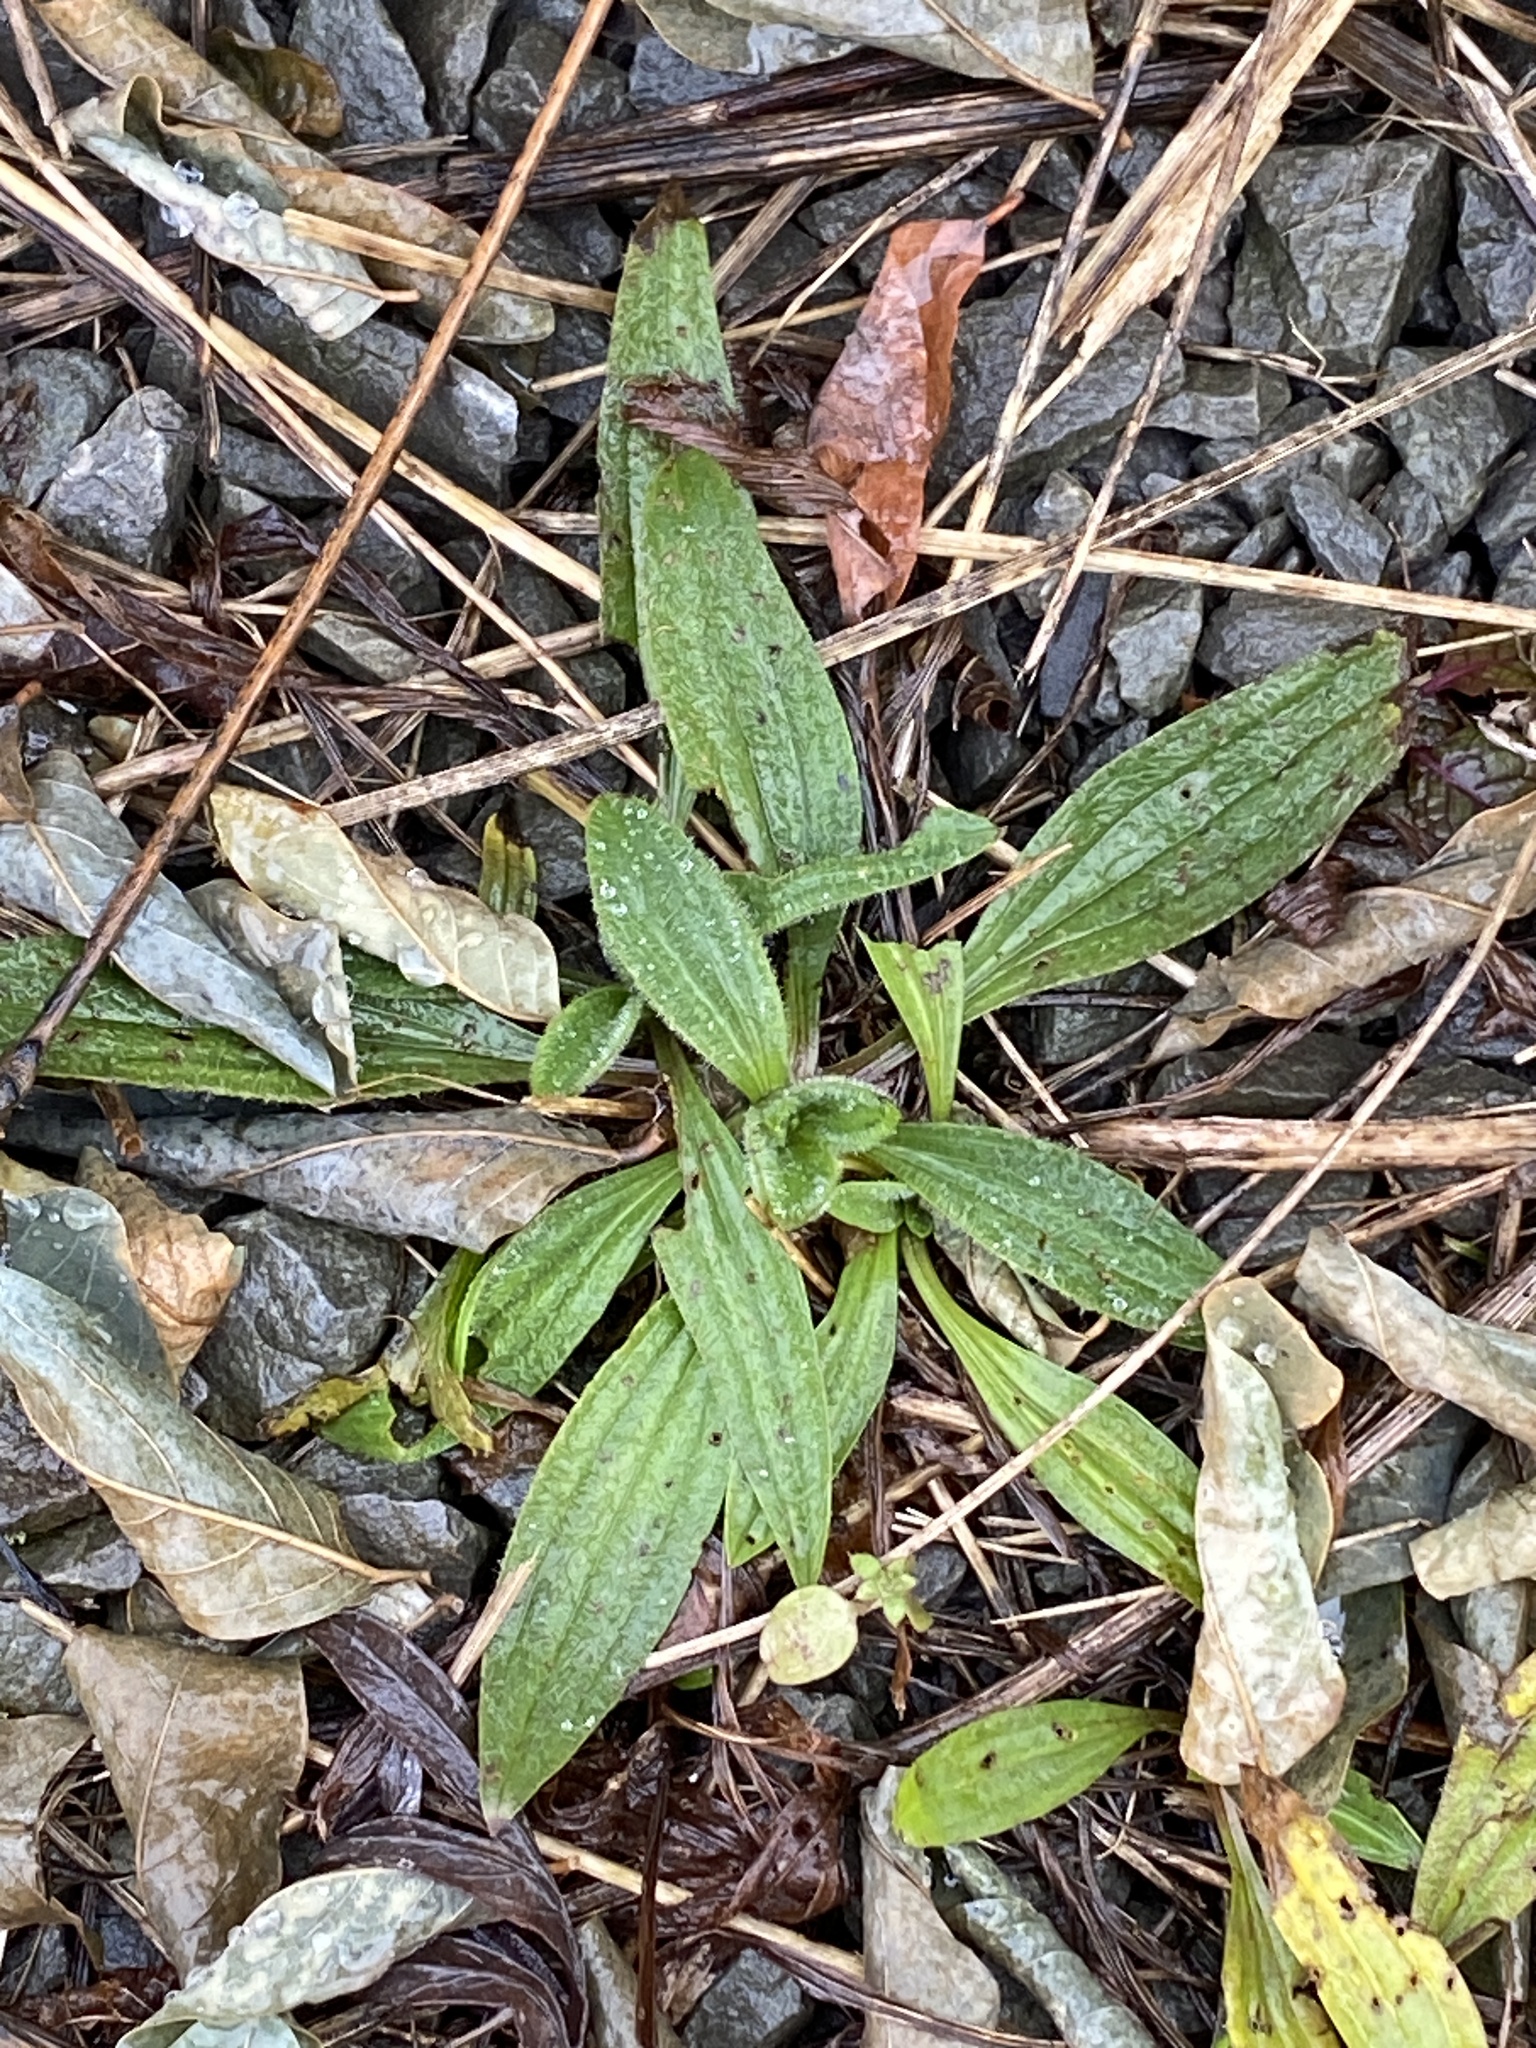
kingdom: Plantae
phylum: Tracheophyta
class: Magnoliopsida
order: Lamiales
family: Plantaginaceae
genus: Plantago
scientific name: Plantago lanceolata
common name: Ribwort plantain
